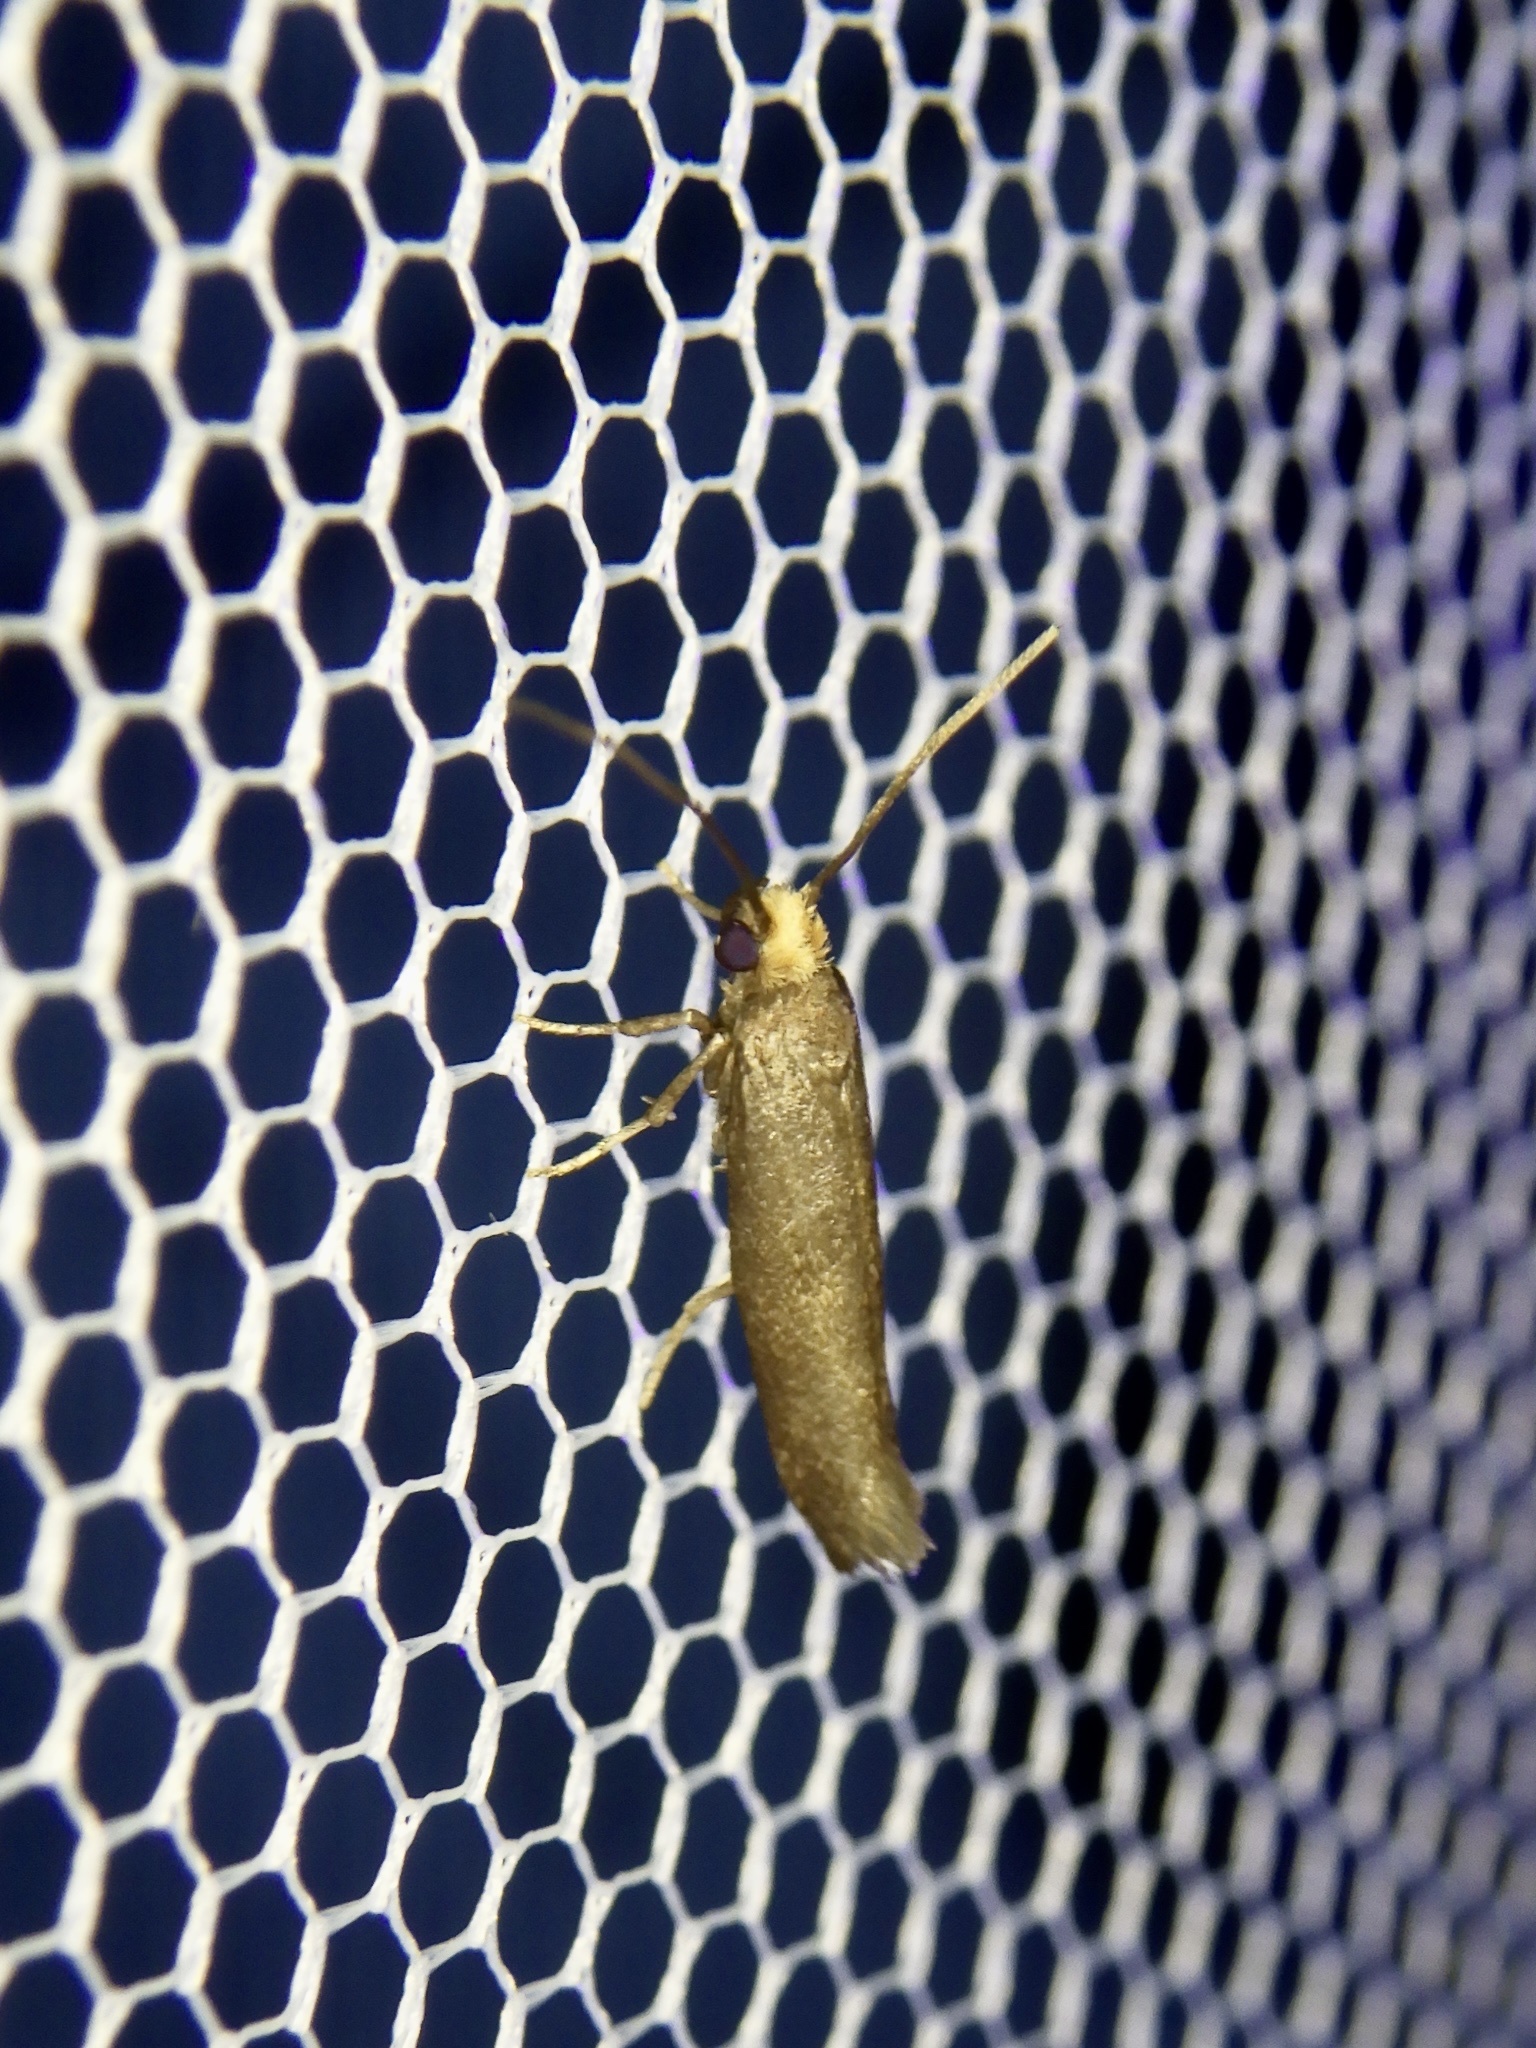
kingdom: Animalia
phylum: Arthropoda
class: Insecta
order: Lepidoptera
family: Yponomeutidae
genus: Metanomeuta
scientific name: Metanomeuta fulvicrinis
